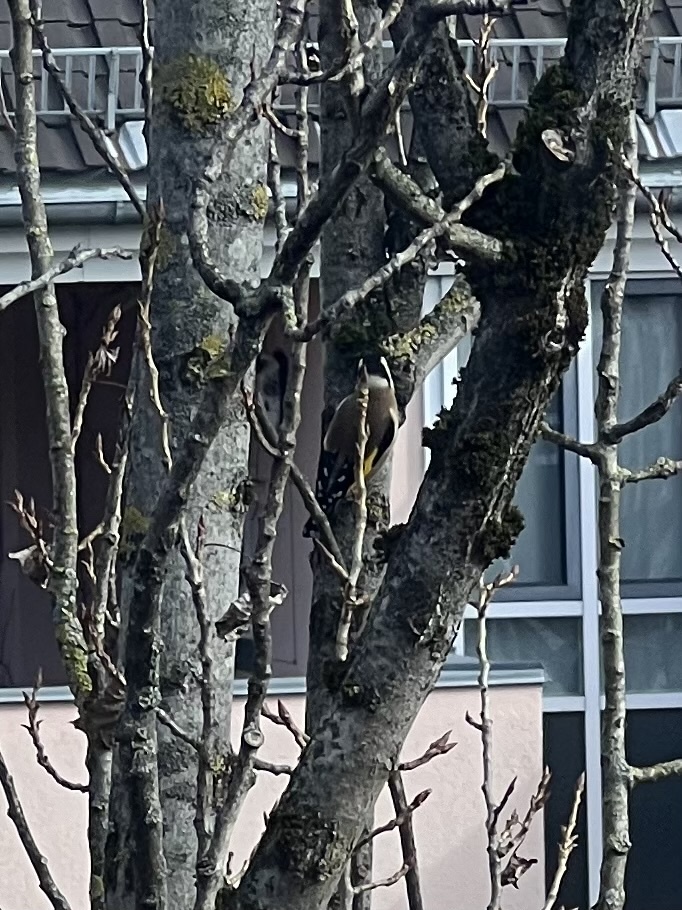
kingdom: Animalia
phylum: Chordata
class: Aves
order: Passeriformes
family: Fringillidae
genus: Carduelis
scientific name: Carduelis carduelis
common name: European goldfinch
